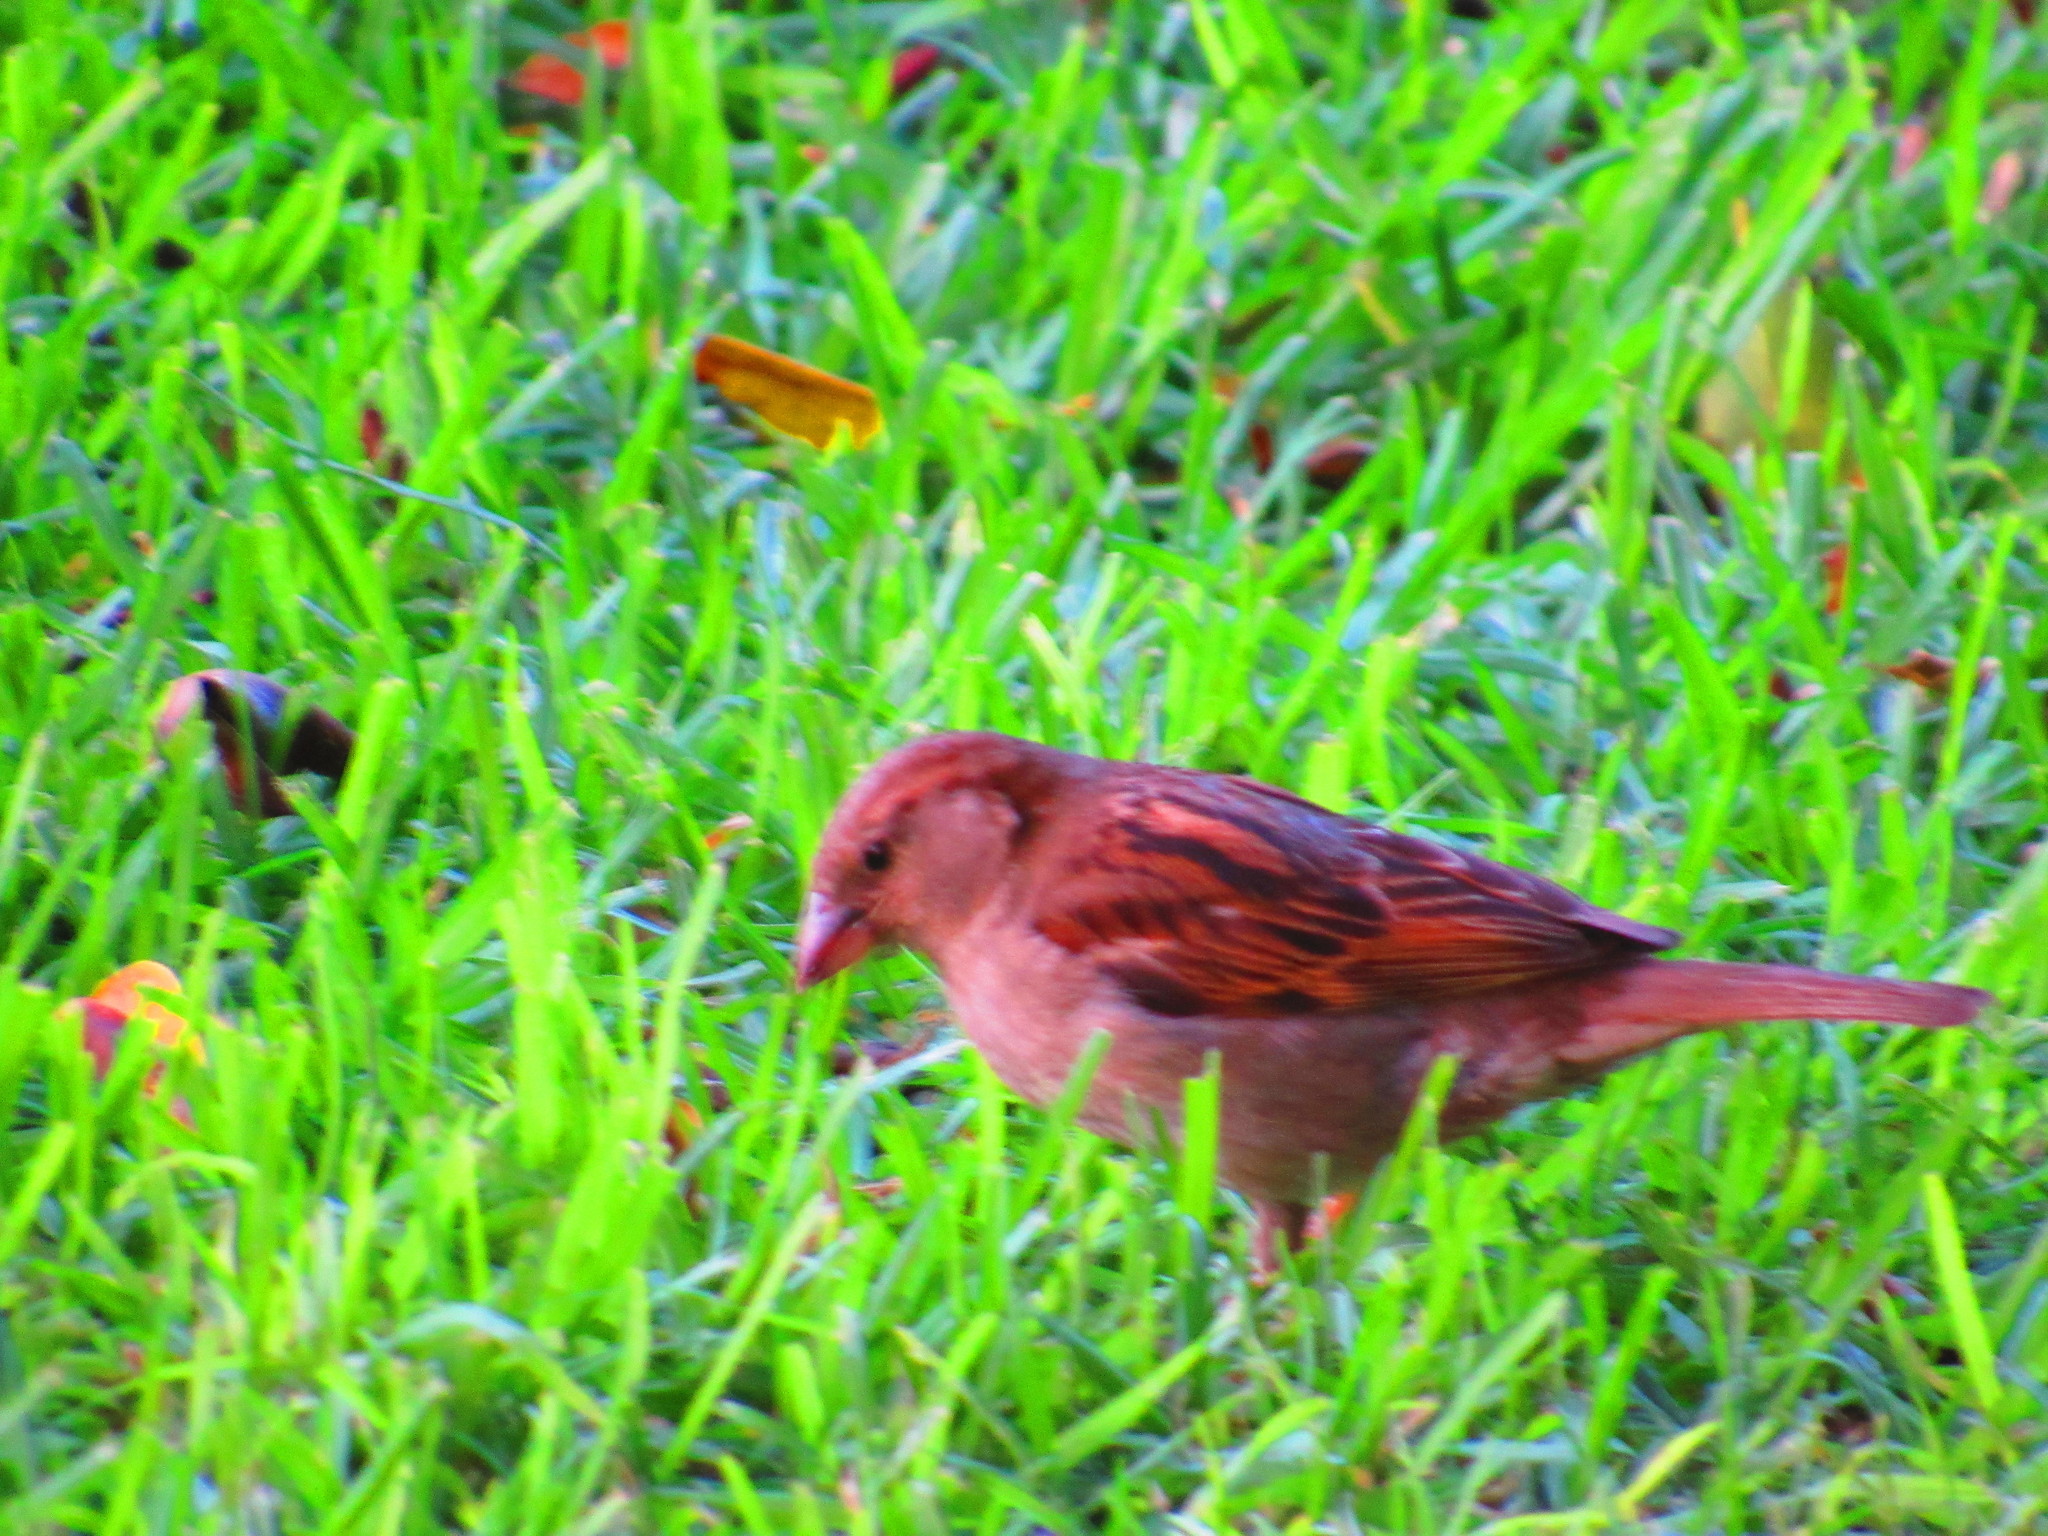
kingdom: Animalia
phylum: Chordata
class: Aves
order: Passeriformes
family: Passeridae
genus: Passer
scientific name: Passer domesticus
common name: House sparrow
